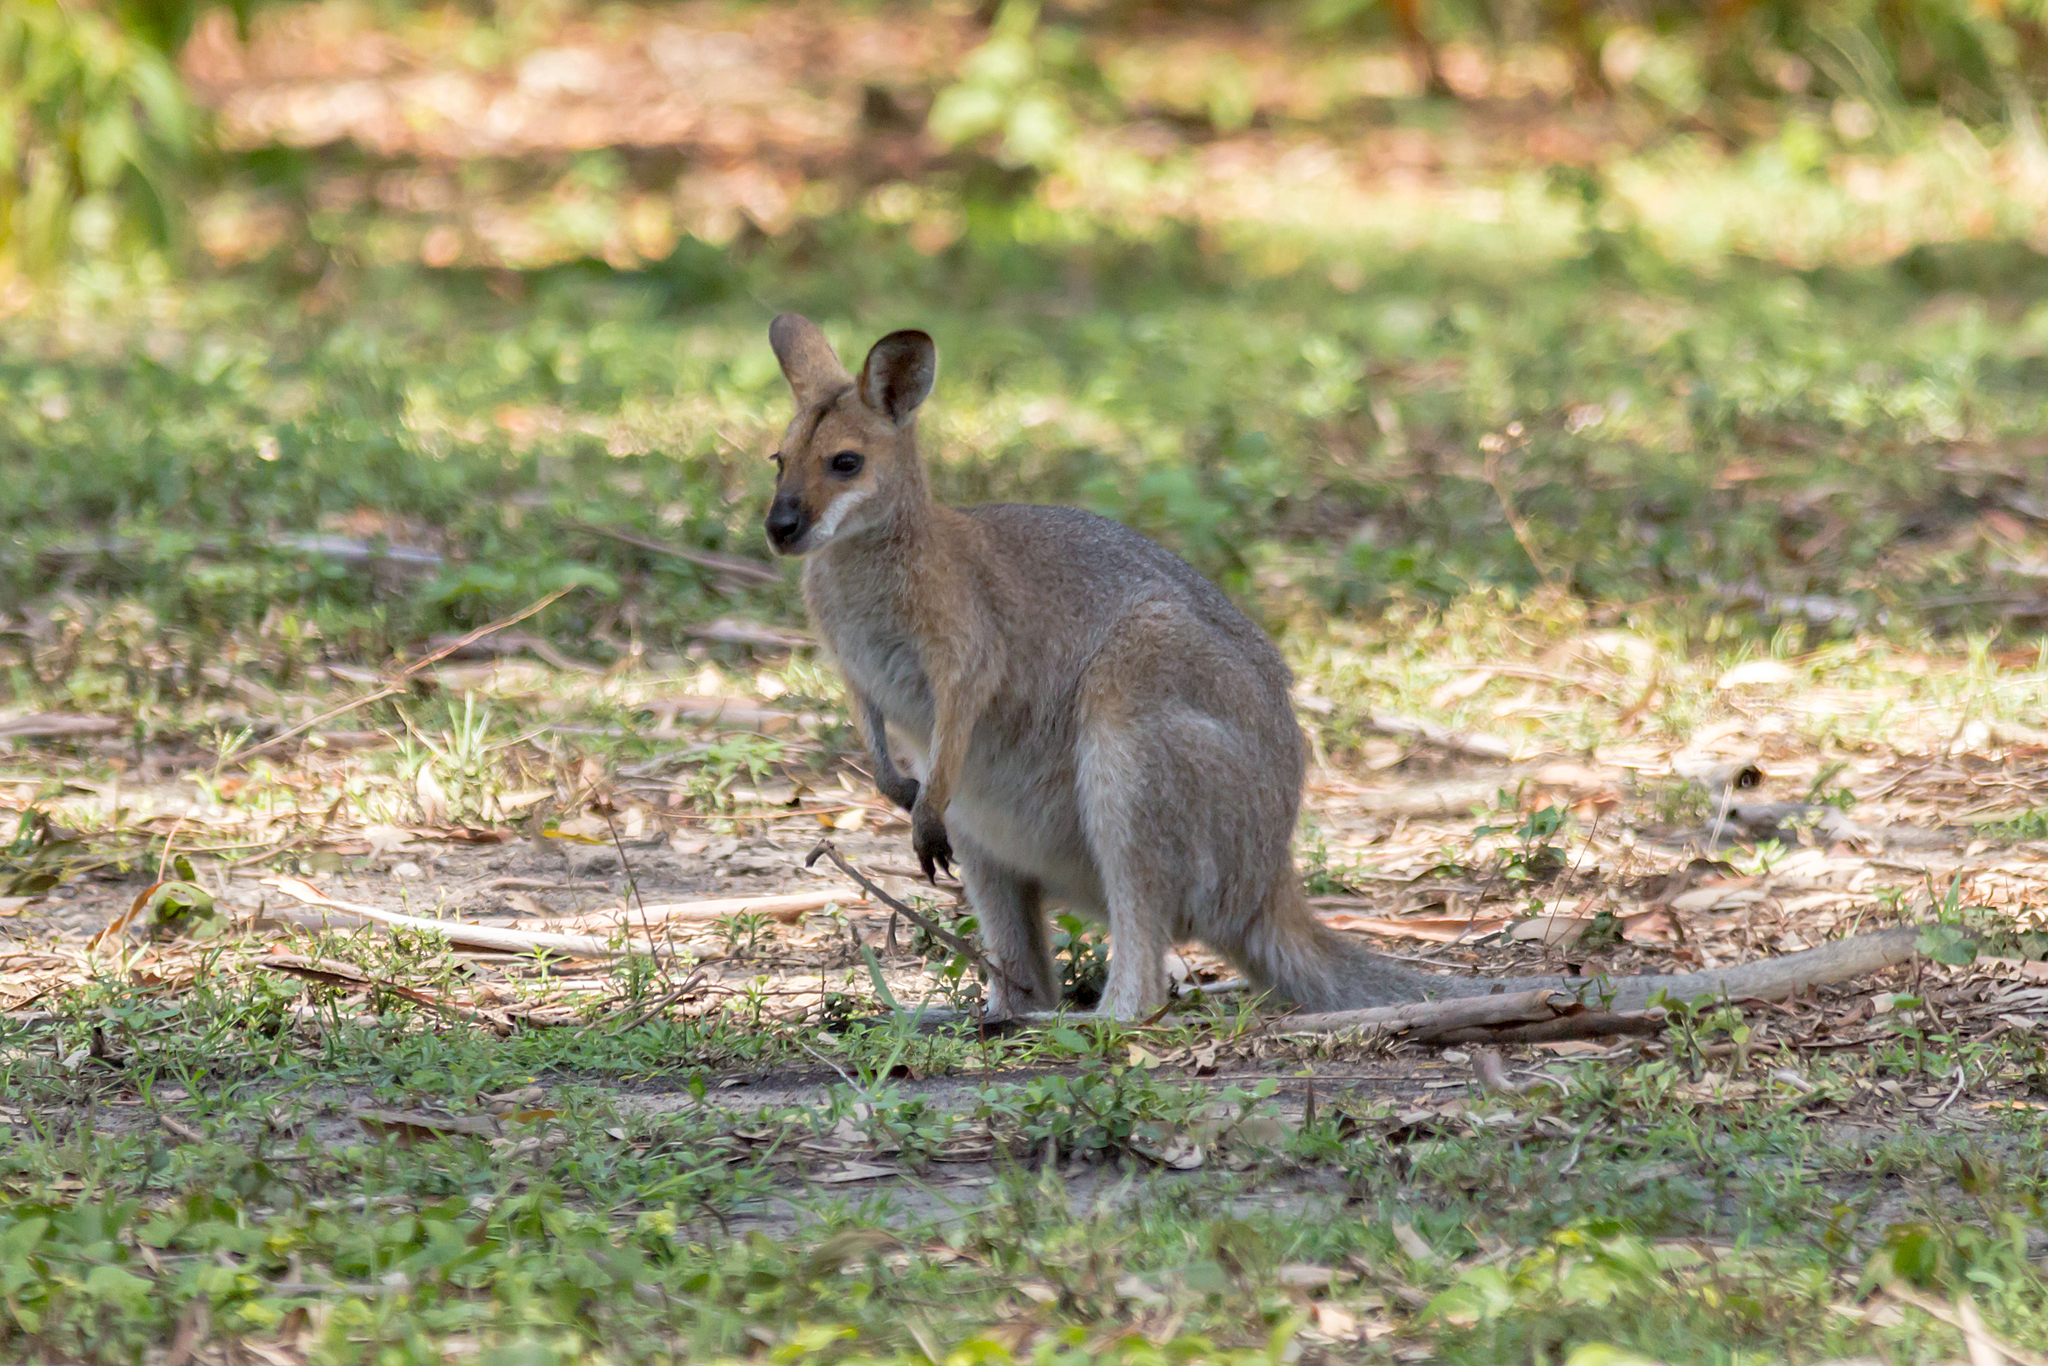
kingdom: Animalia
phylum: Chordata
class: Mammalia
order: Diprotodontia
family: Macropodidae
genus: Notamacropus
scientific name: Notamacropus rufogriseus
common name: Red-necked wallaby
